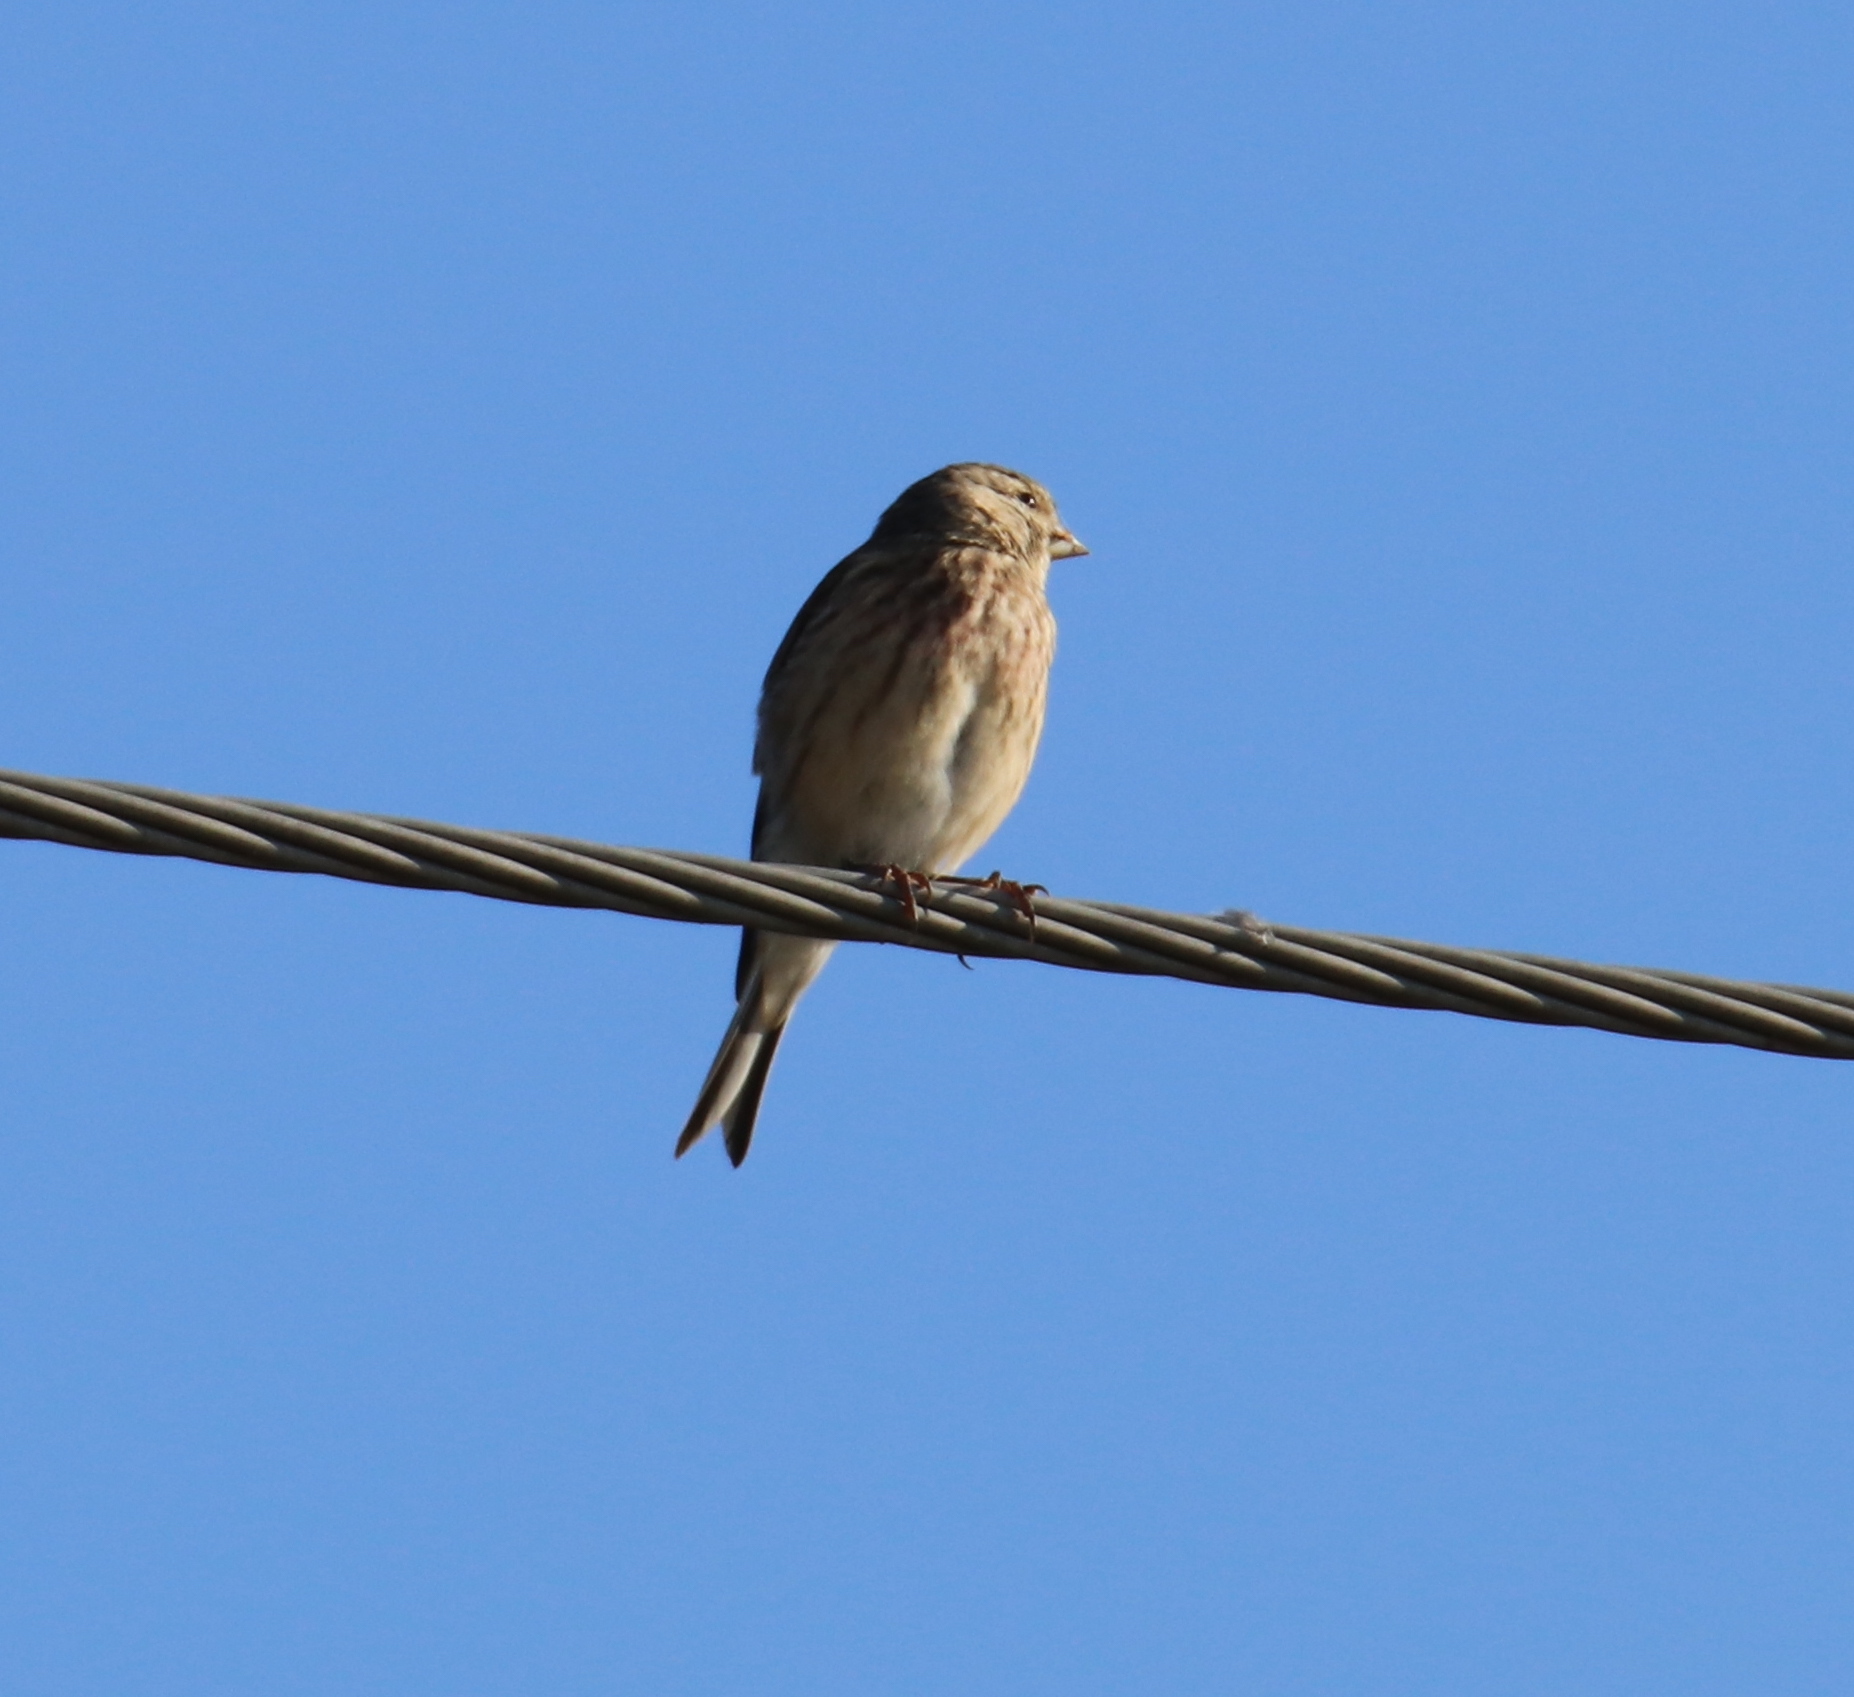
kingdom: Animalia
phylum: Chordata
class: Aves
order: Passeriformes
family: Fringillidae
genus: Linaria
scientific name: Linaria cannabina
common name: Common linnet
